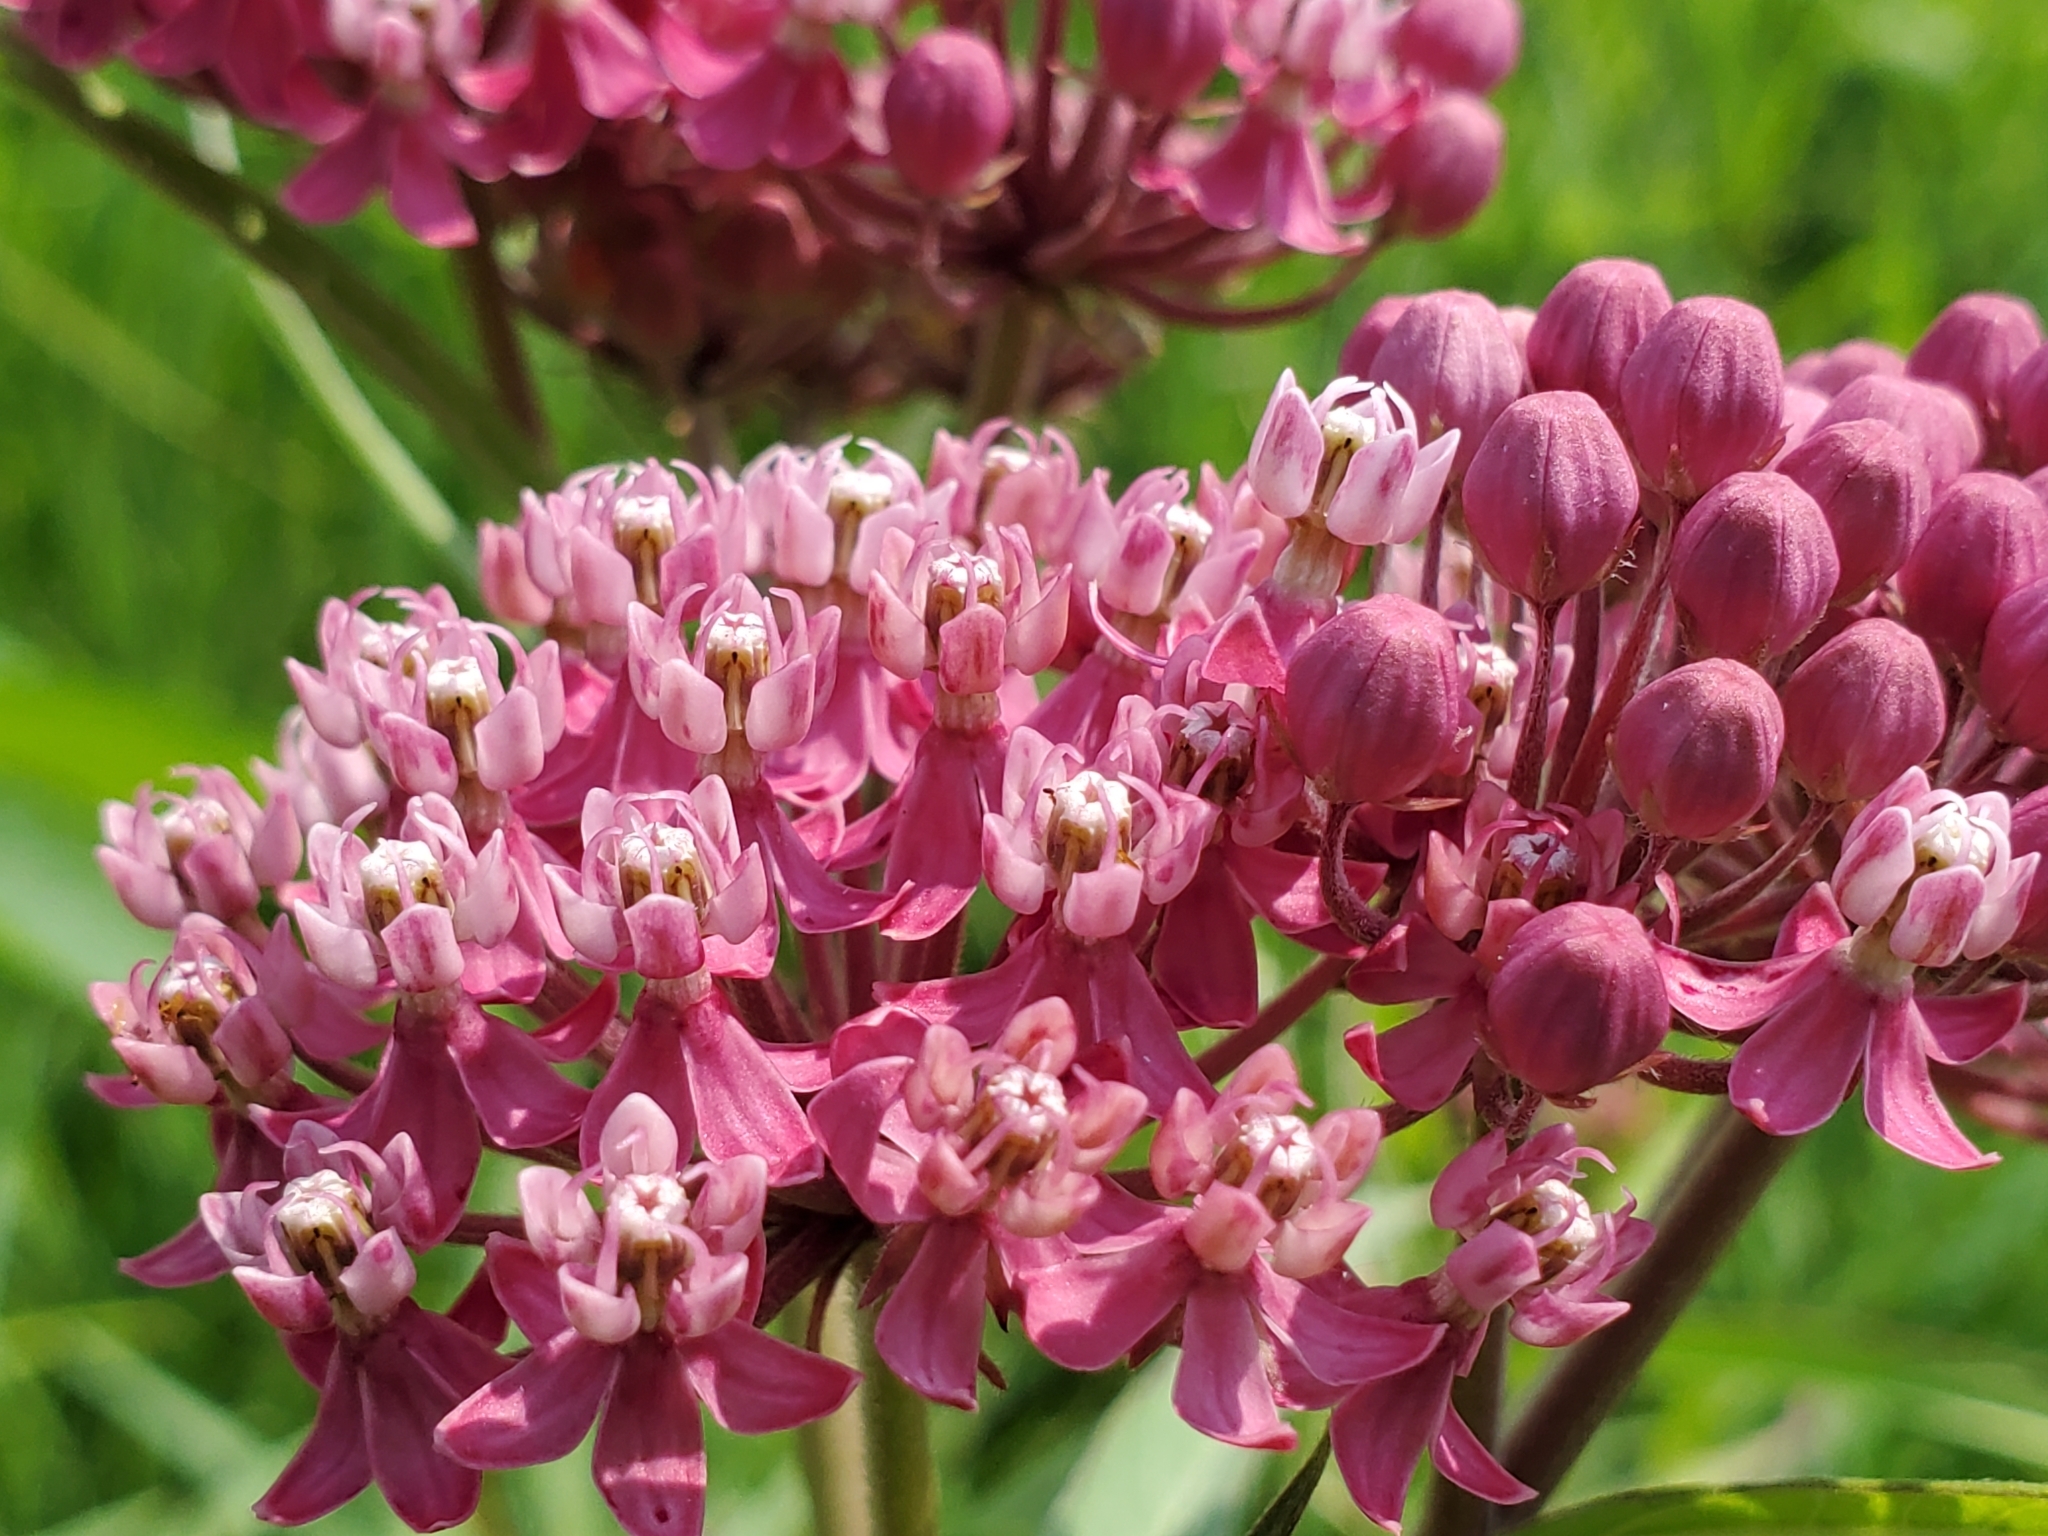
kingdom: Plantae
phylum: Tracheophyta
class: Magnoliopsida
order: Gentianales
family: Apocynaceae
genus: Asclepias
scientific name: Asclepias incarnata
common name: Swamp milkweed
